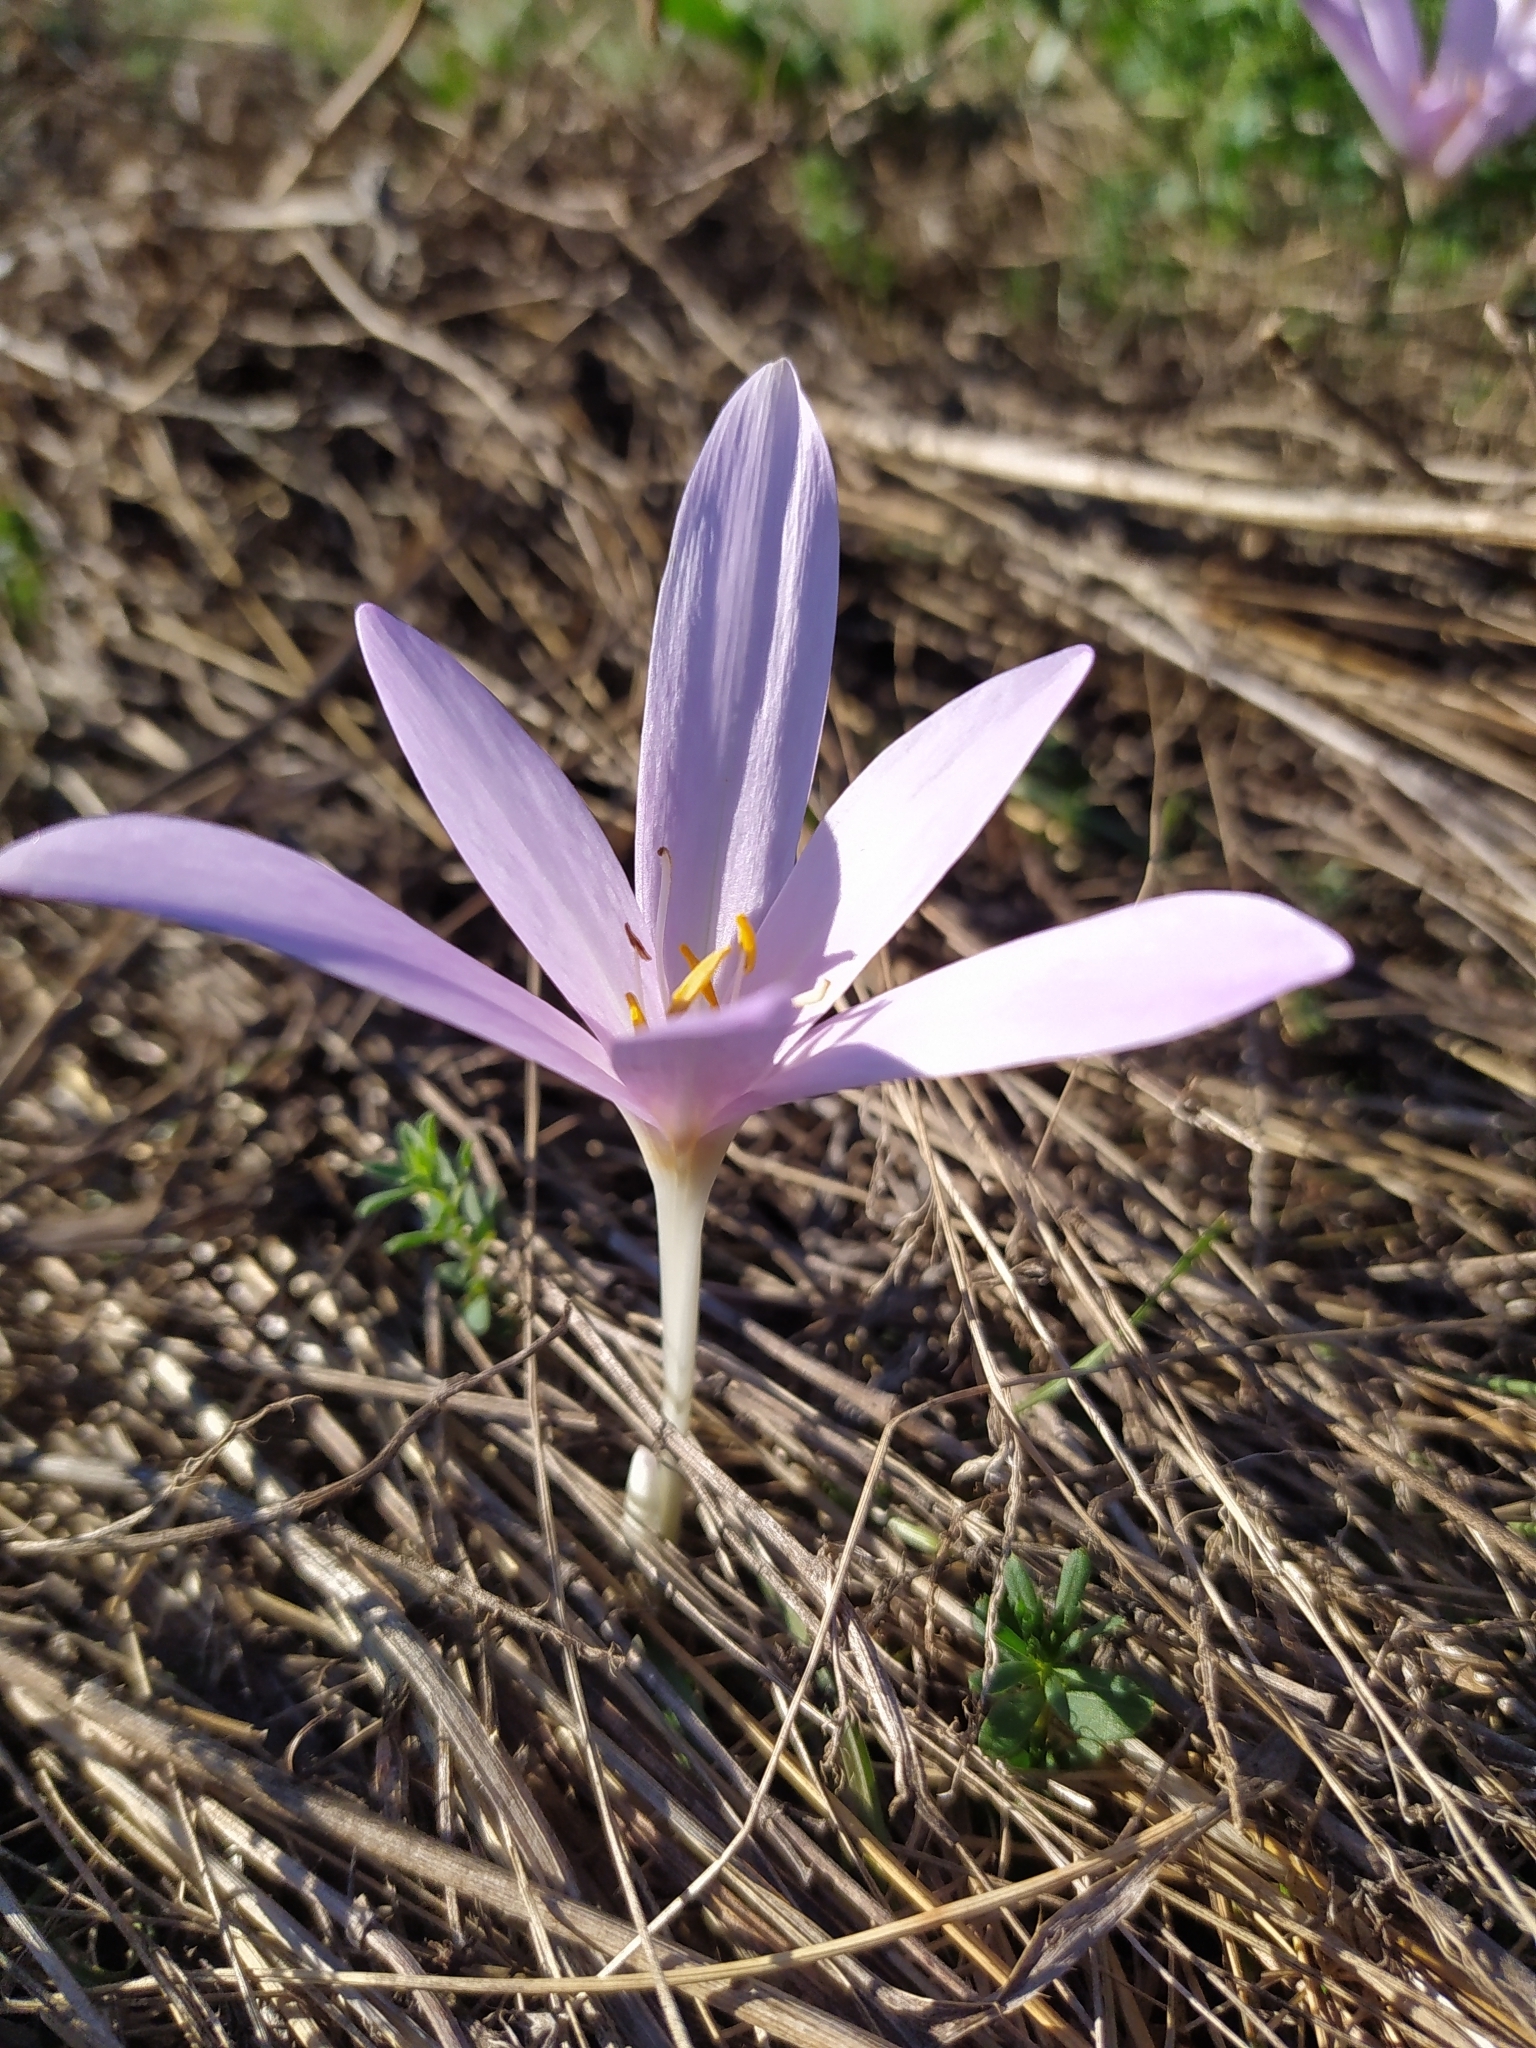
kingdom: Plantae
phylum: Tracheophyta
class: Liliopsida
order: Liliales
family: Colchicaceae
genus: Colchicum
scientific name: Colchicum autumnale
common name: Autumn crocus
